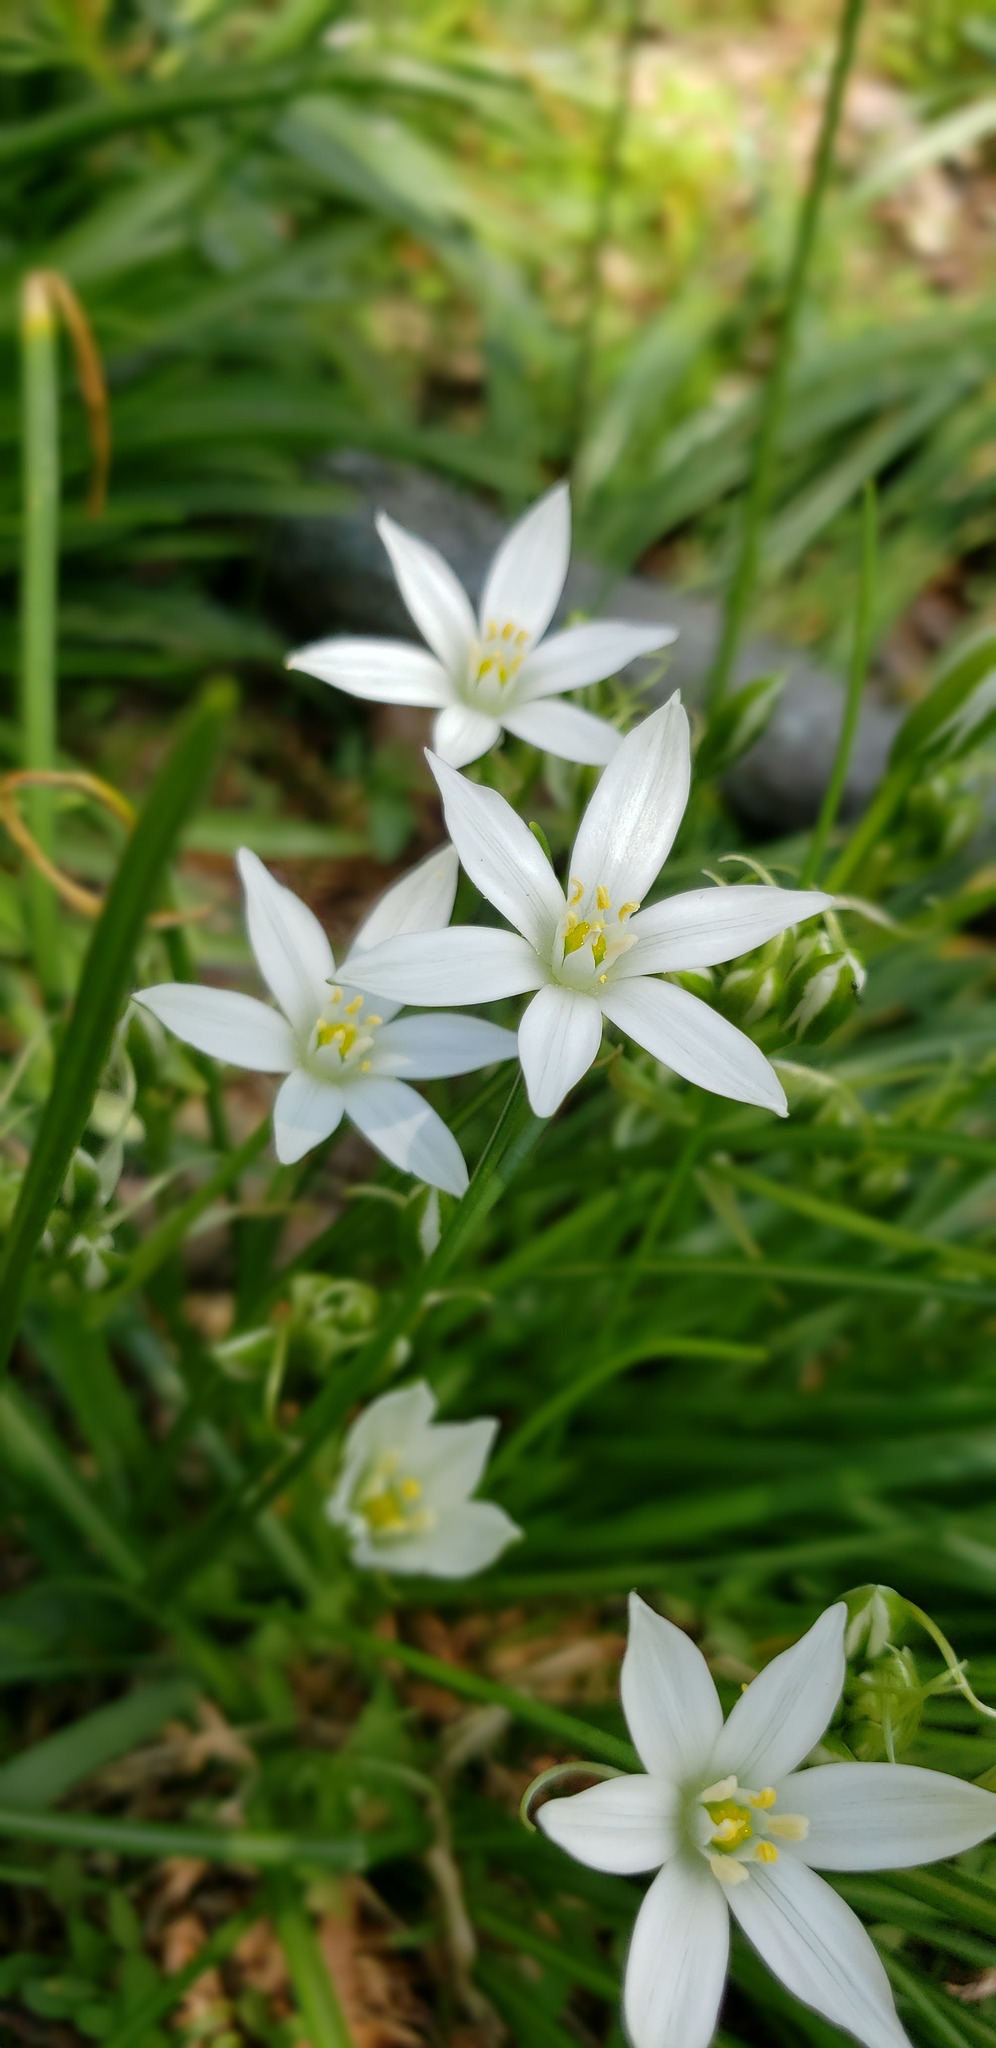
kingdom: Plantae
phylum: Tracheophyta
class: Liliopsida
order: Asparagales
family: Asparagaceae
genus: Ornithogalum
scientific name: Ornithogalum umbellatum
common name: Garden star-of-bethlehem
